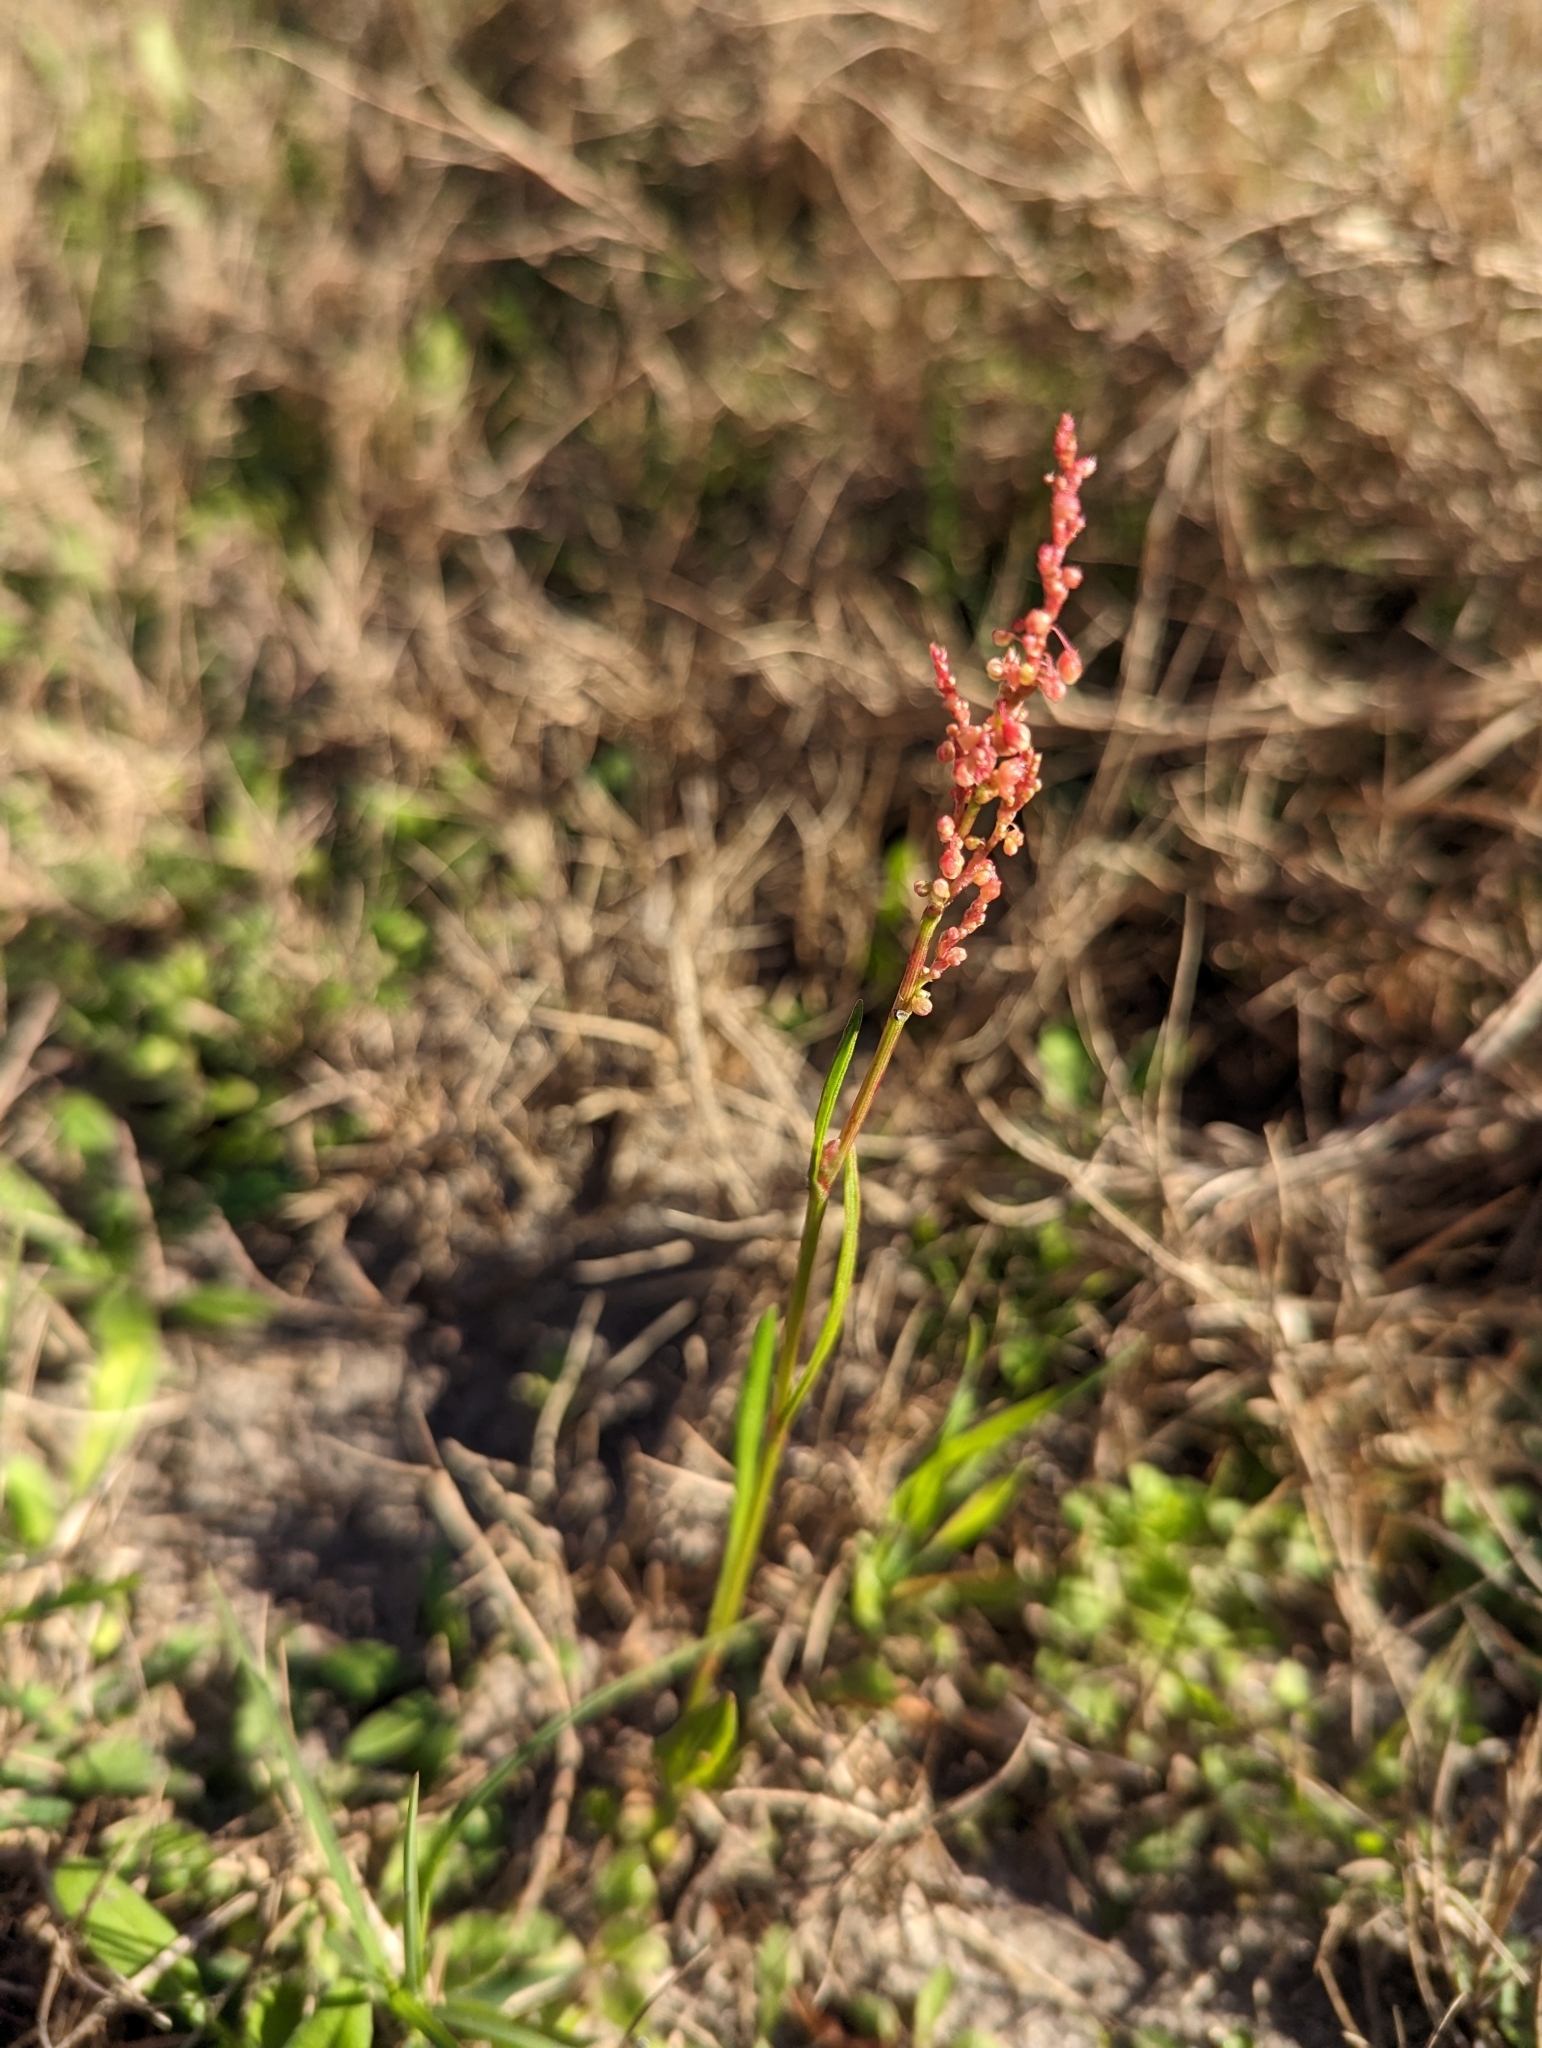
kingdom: Plantae
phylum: Tracheophyta
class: Magnoliopsida
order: Caryophyllales
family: Polygonaceae
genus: Rumex
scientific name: Rumex hastatulus
